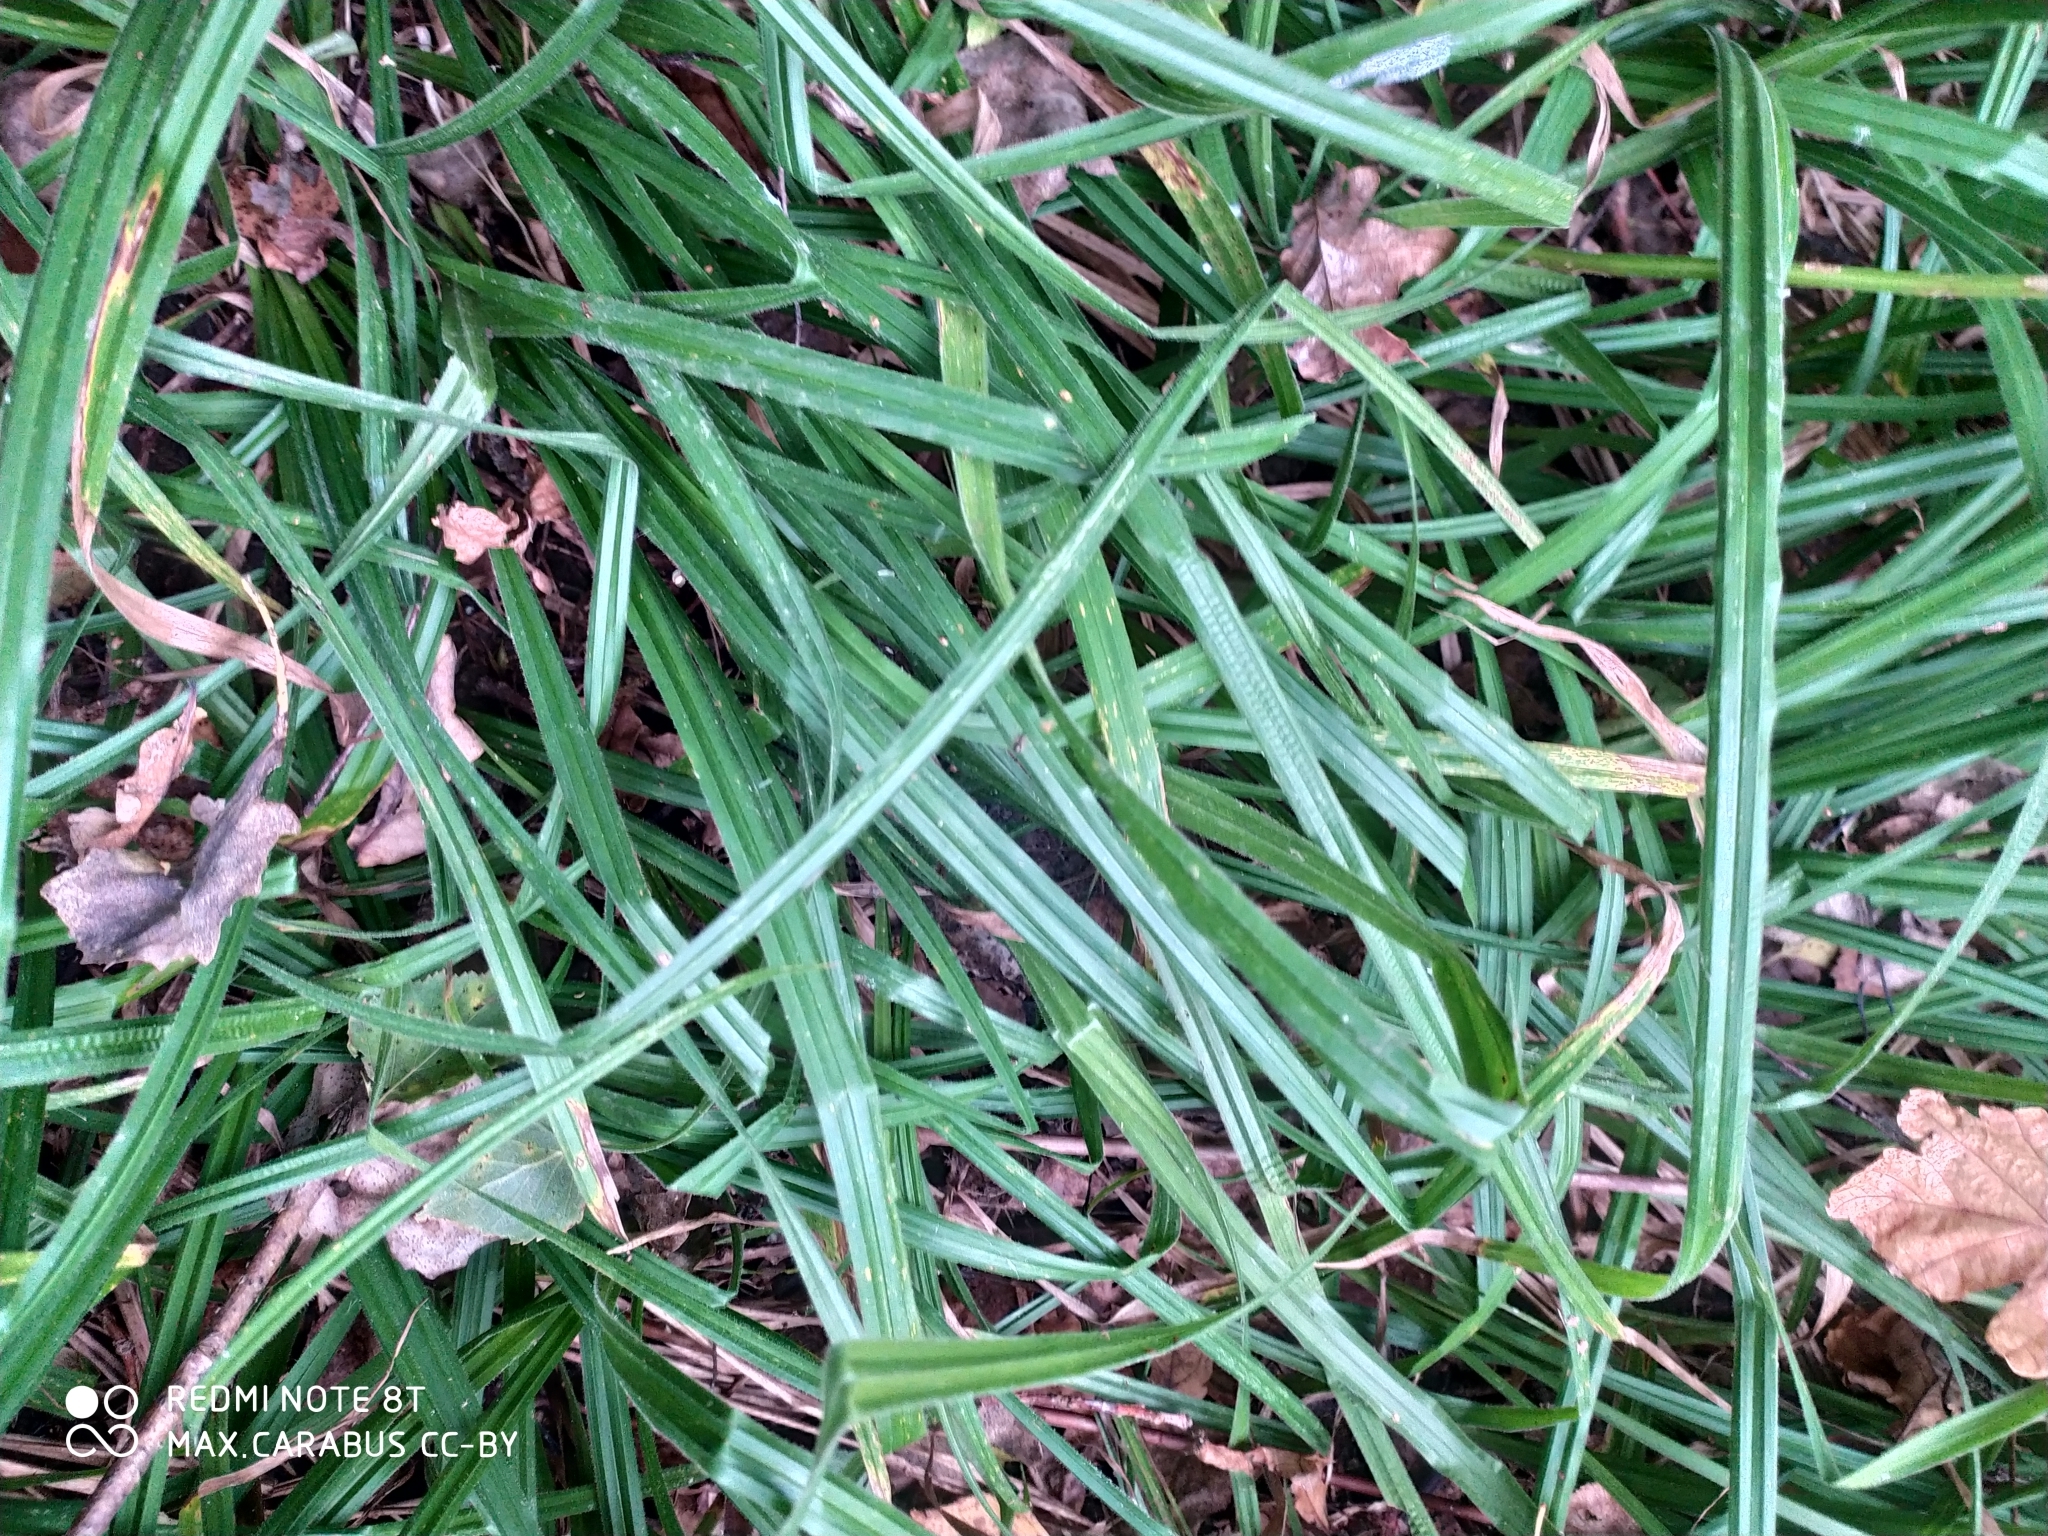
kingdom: Plantae
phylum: Tracheophyta
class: Liliopsida
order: Poales
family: Cyperaceae
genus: Carex
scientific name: Carex pilosa
